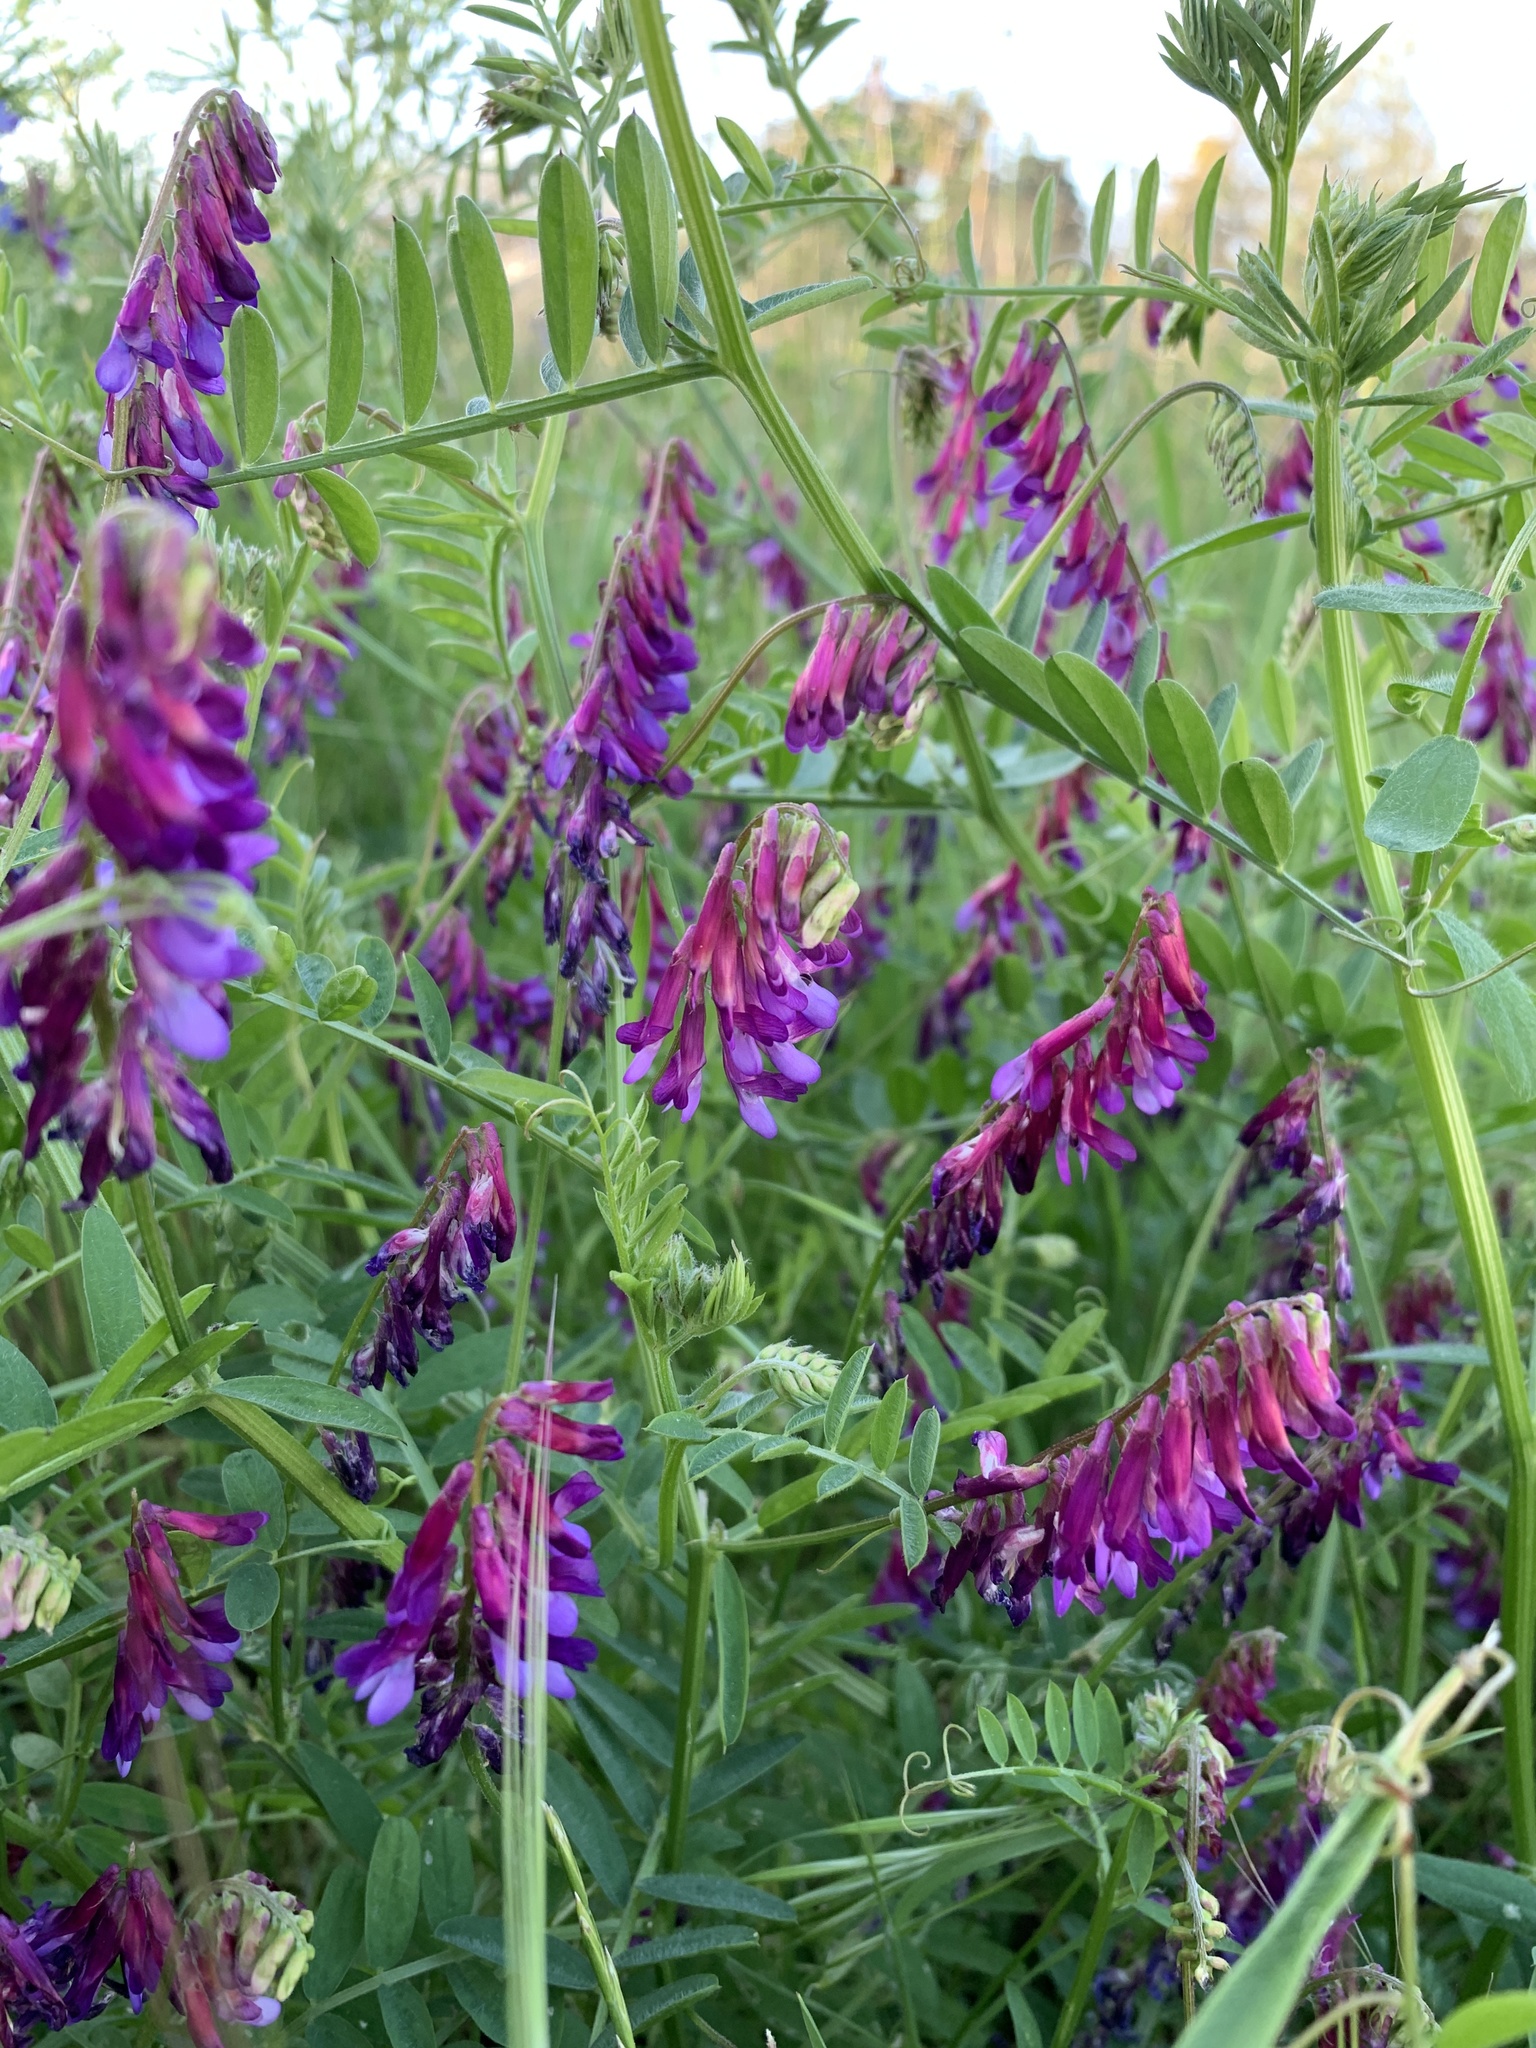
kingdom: Plantae
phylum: Tracheophyta
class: Magnoliopsida
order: Fabales
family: Fabaceae
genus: Vicia
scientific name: Vicia eriocarpa
